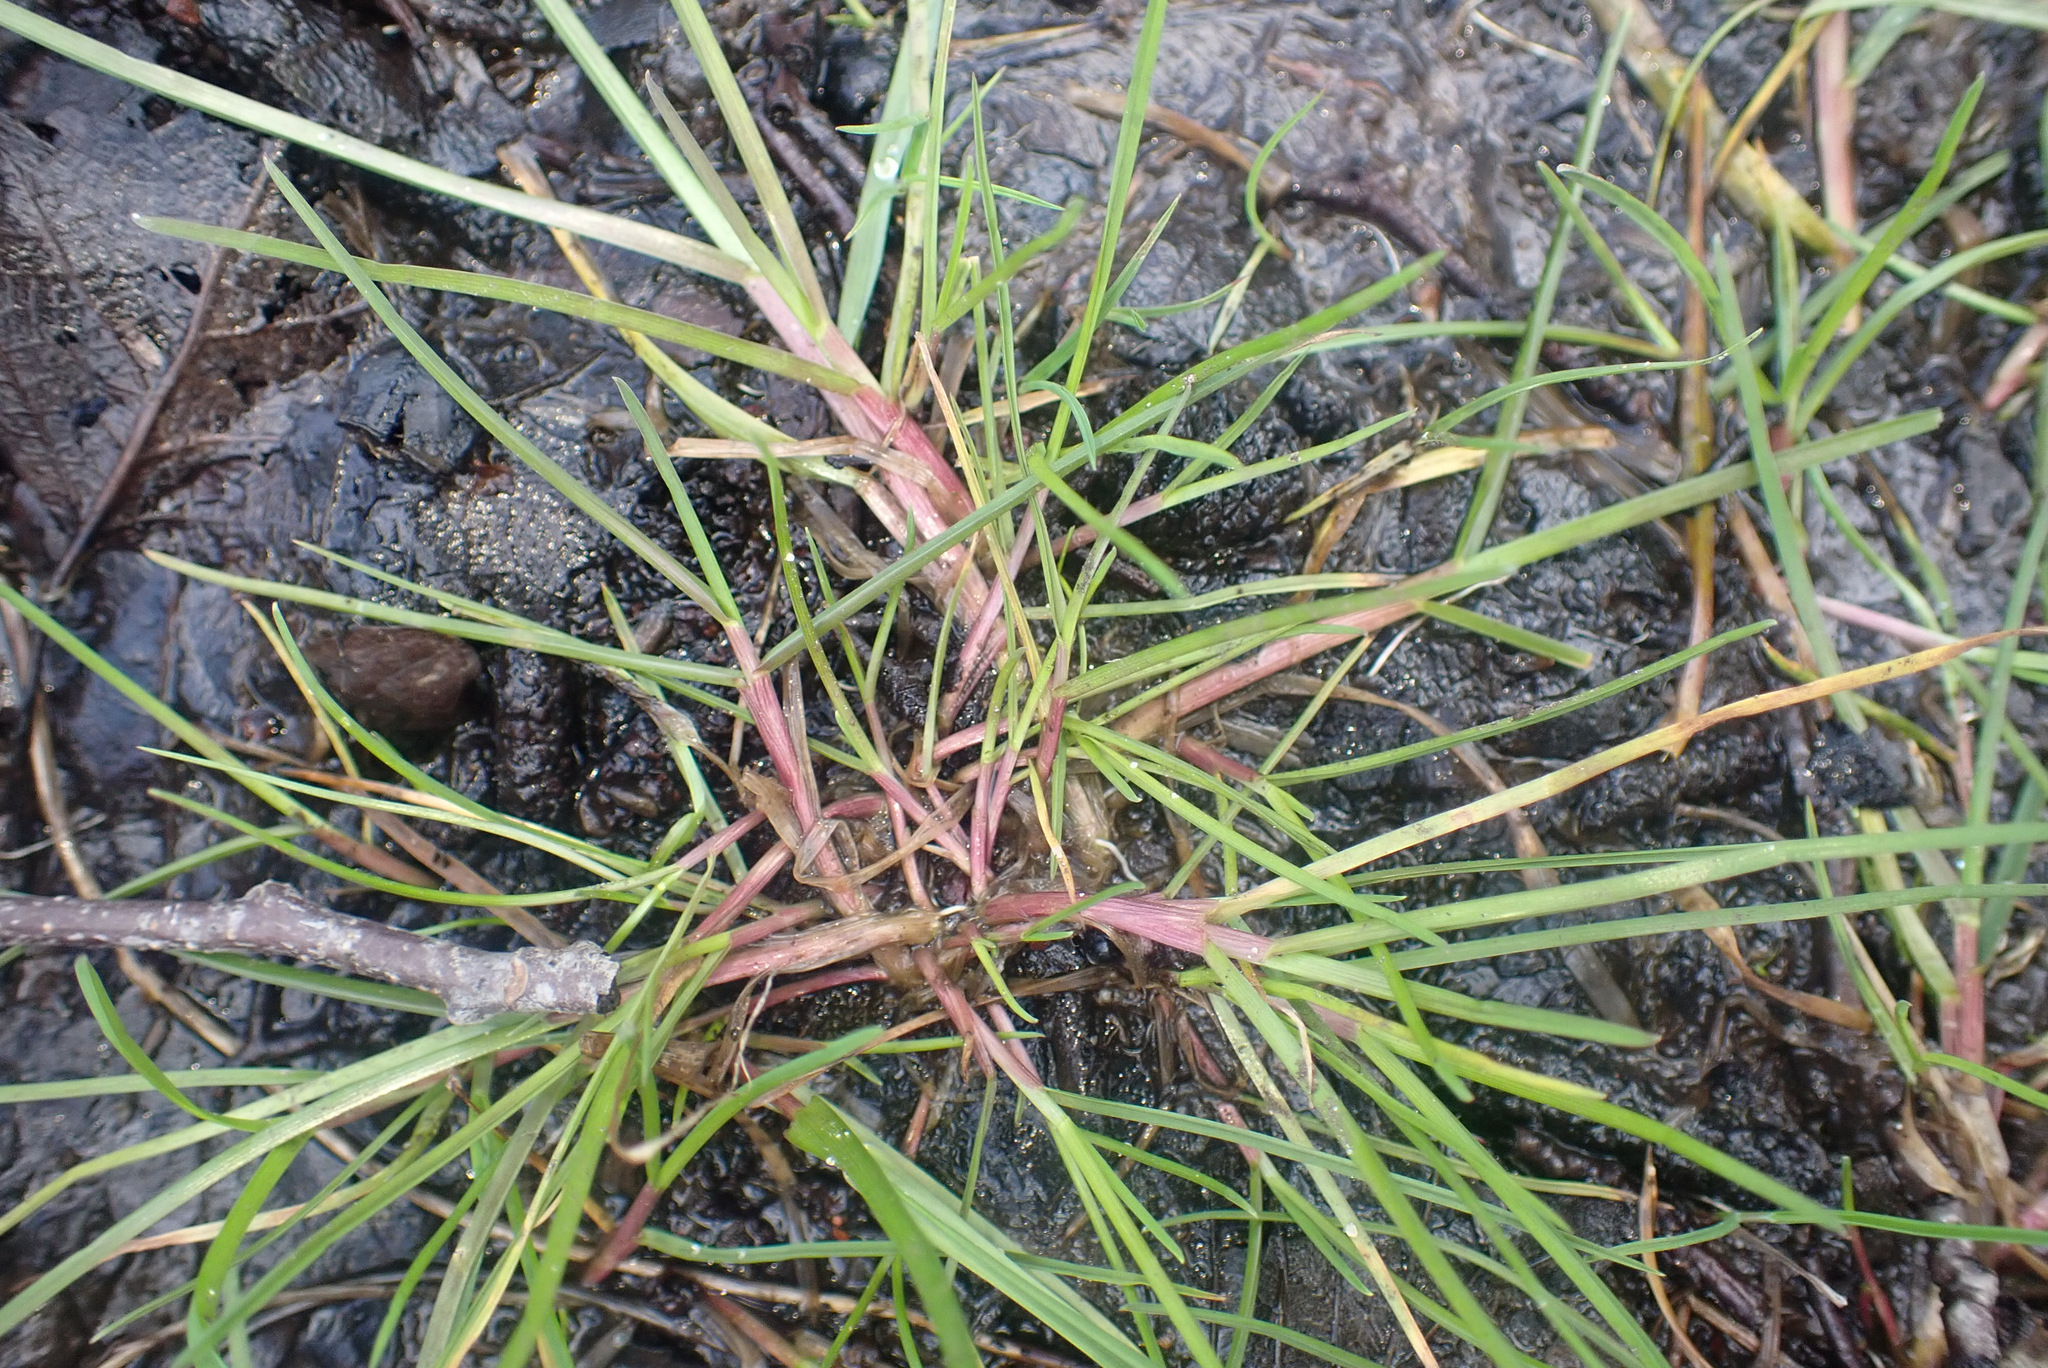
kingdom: Plantae
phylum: Tracheophyta
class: Liliopsida
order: Poales
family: Poaceae
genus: Poa
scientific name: Poa trivialis
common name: Rough bluegrass
